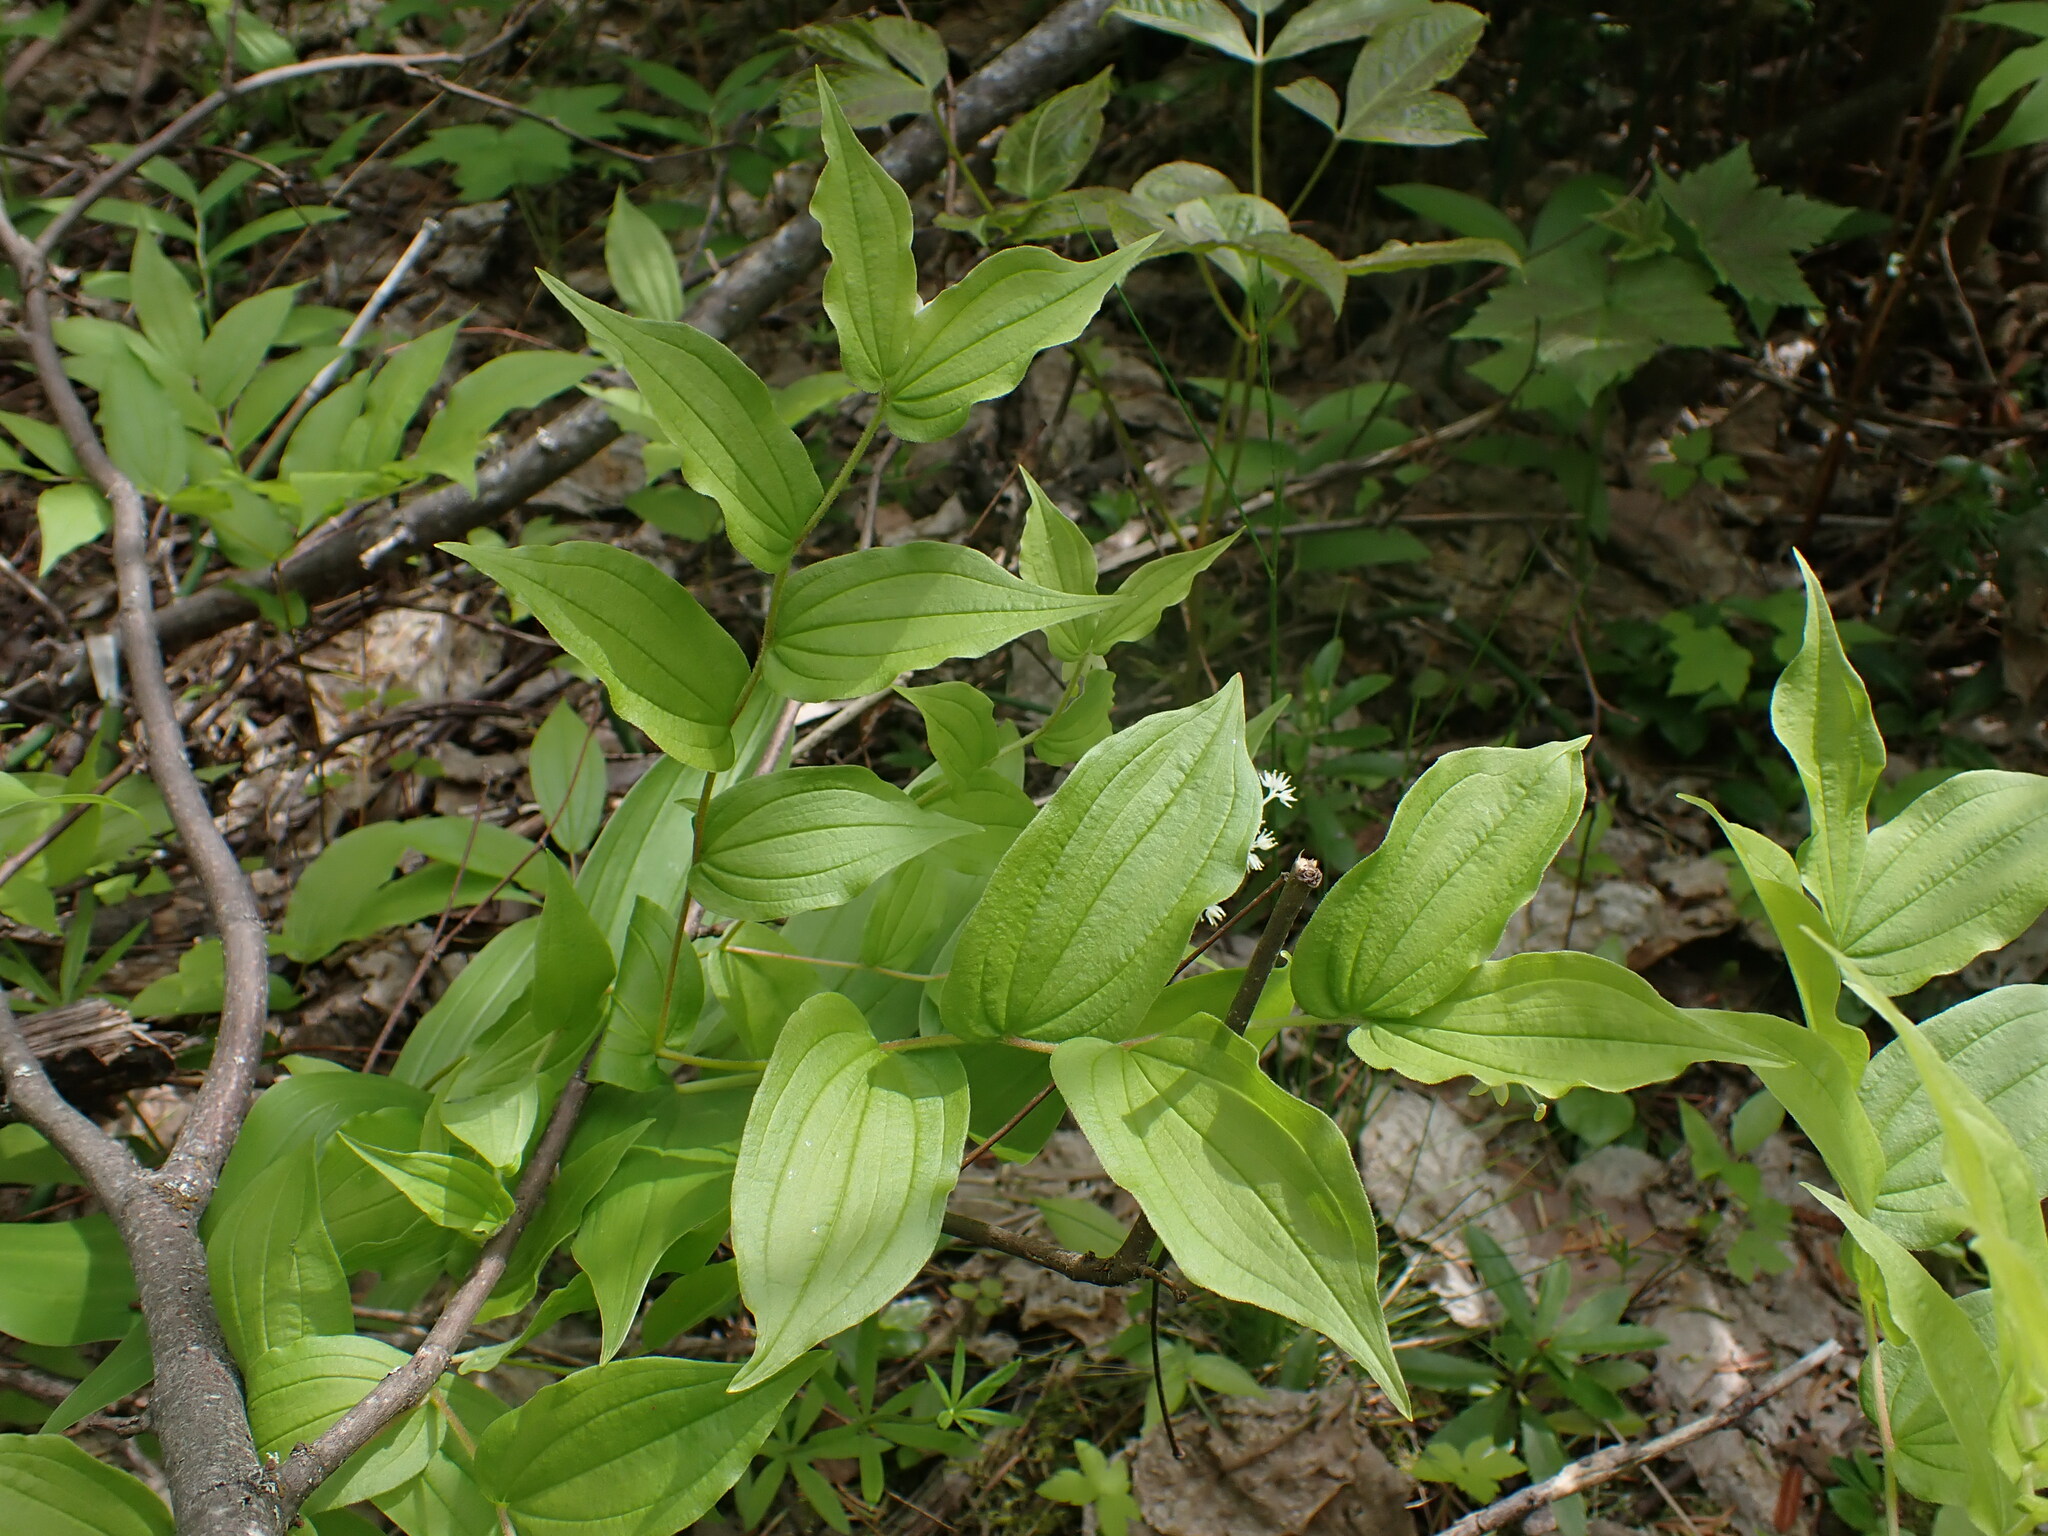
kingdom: Plantae
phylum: Tracheophyta
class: Liliopsida
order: Liliales
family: Liliaceae
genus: Prosartes
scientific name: Prosartes hookeri
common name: Fairy-bells
